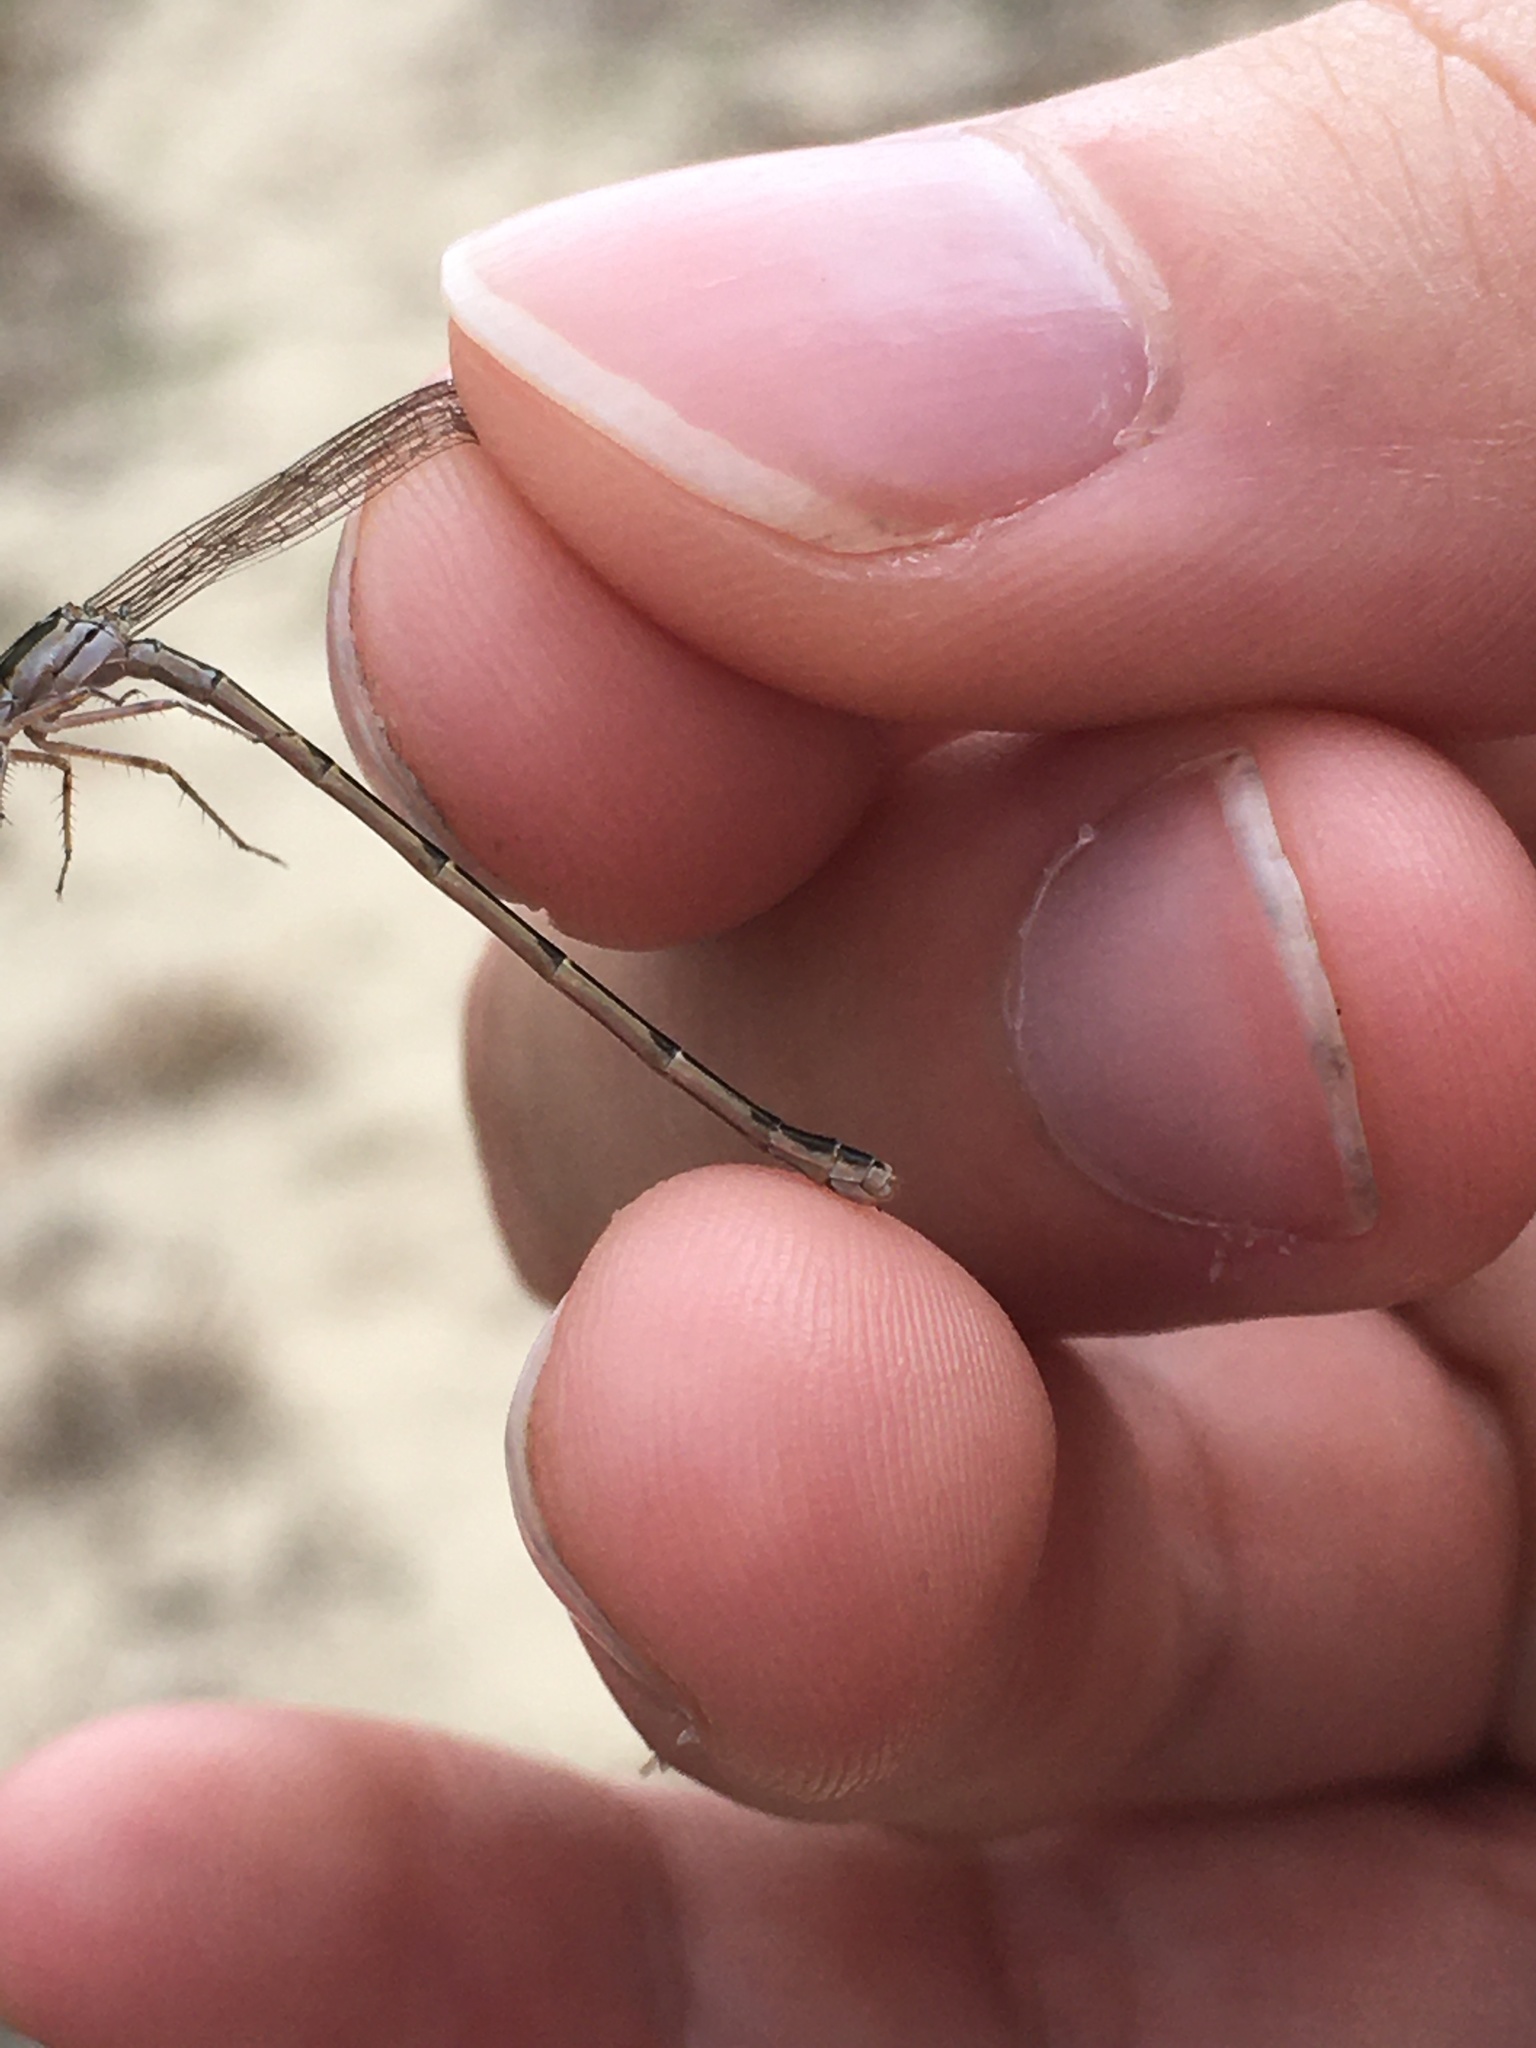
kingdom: Animalia
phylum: Arthropoda
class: Insecta
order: Odonata
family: Coenagrionidae
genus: Ischnura
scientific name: Ischnura posita
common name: Fragile forktail
